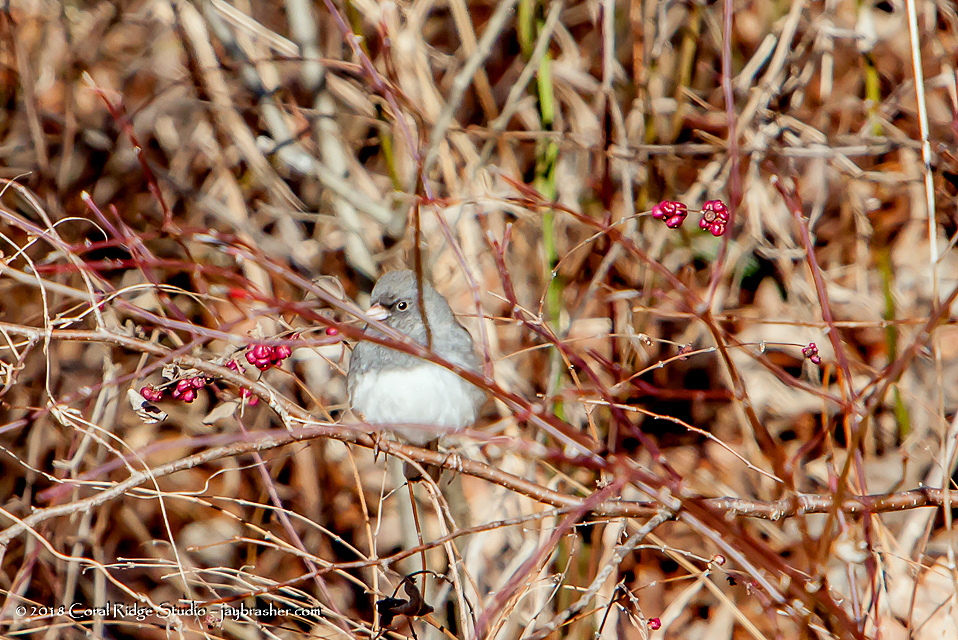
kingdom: Animalia
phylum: Chordata
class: Aves
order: Passeriformes
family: Passerellidae
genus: Junco
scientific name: Junco hyemalis
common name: Dark-eyed junco
